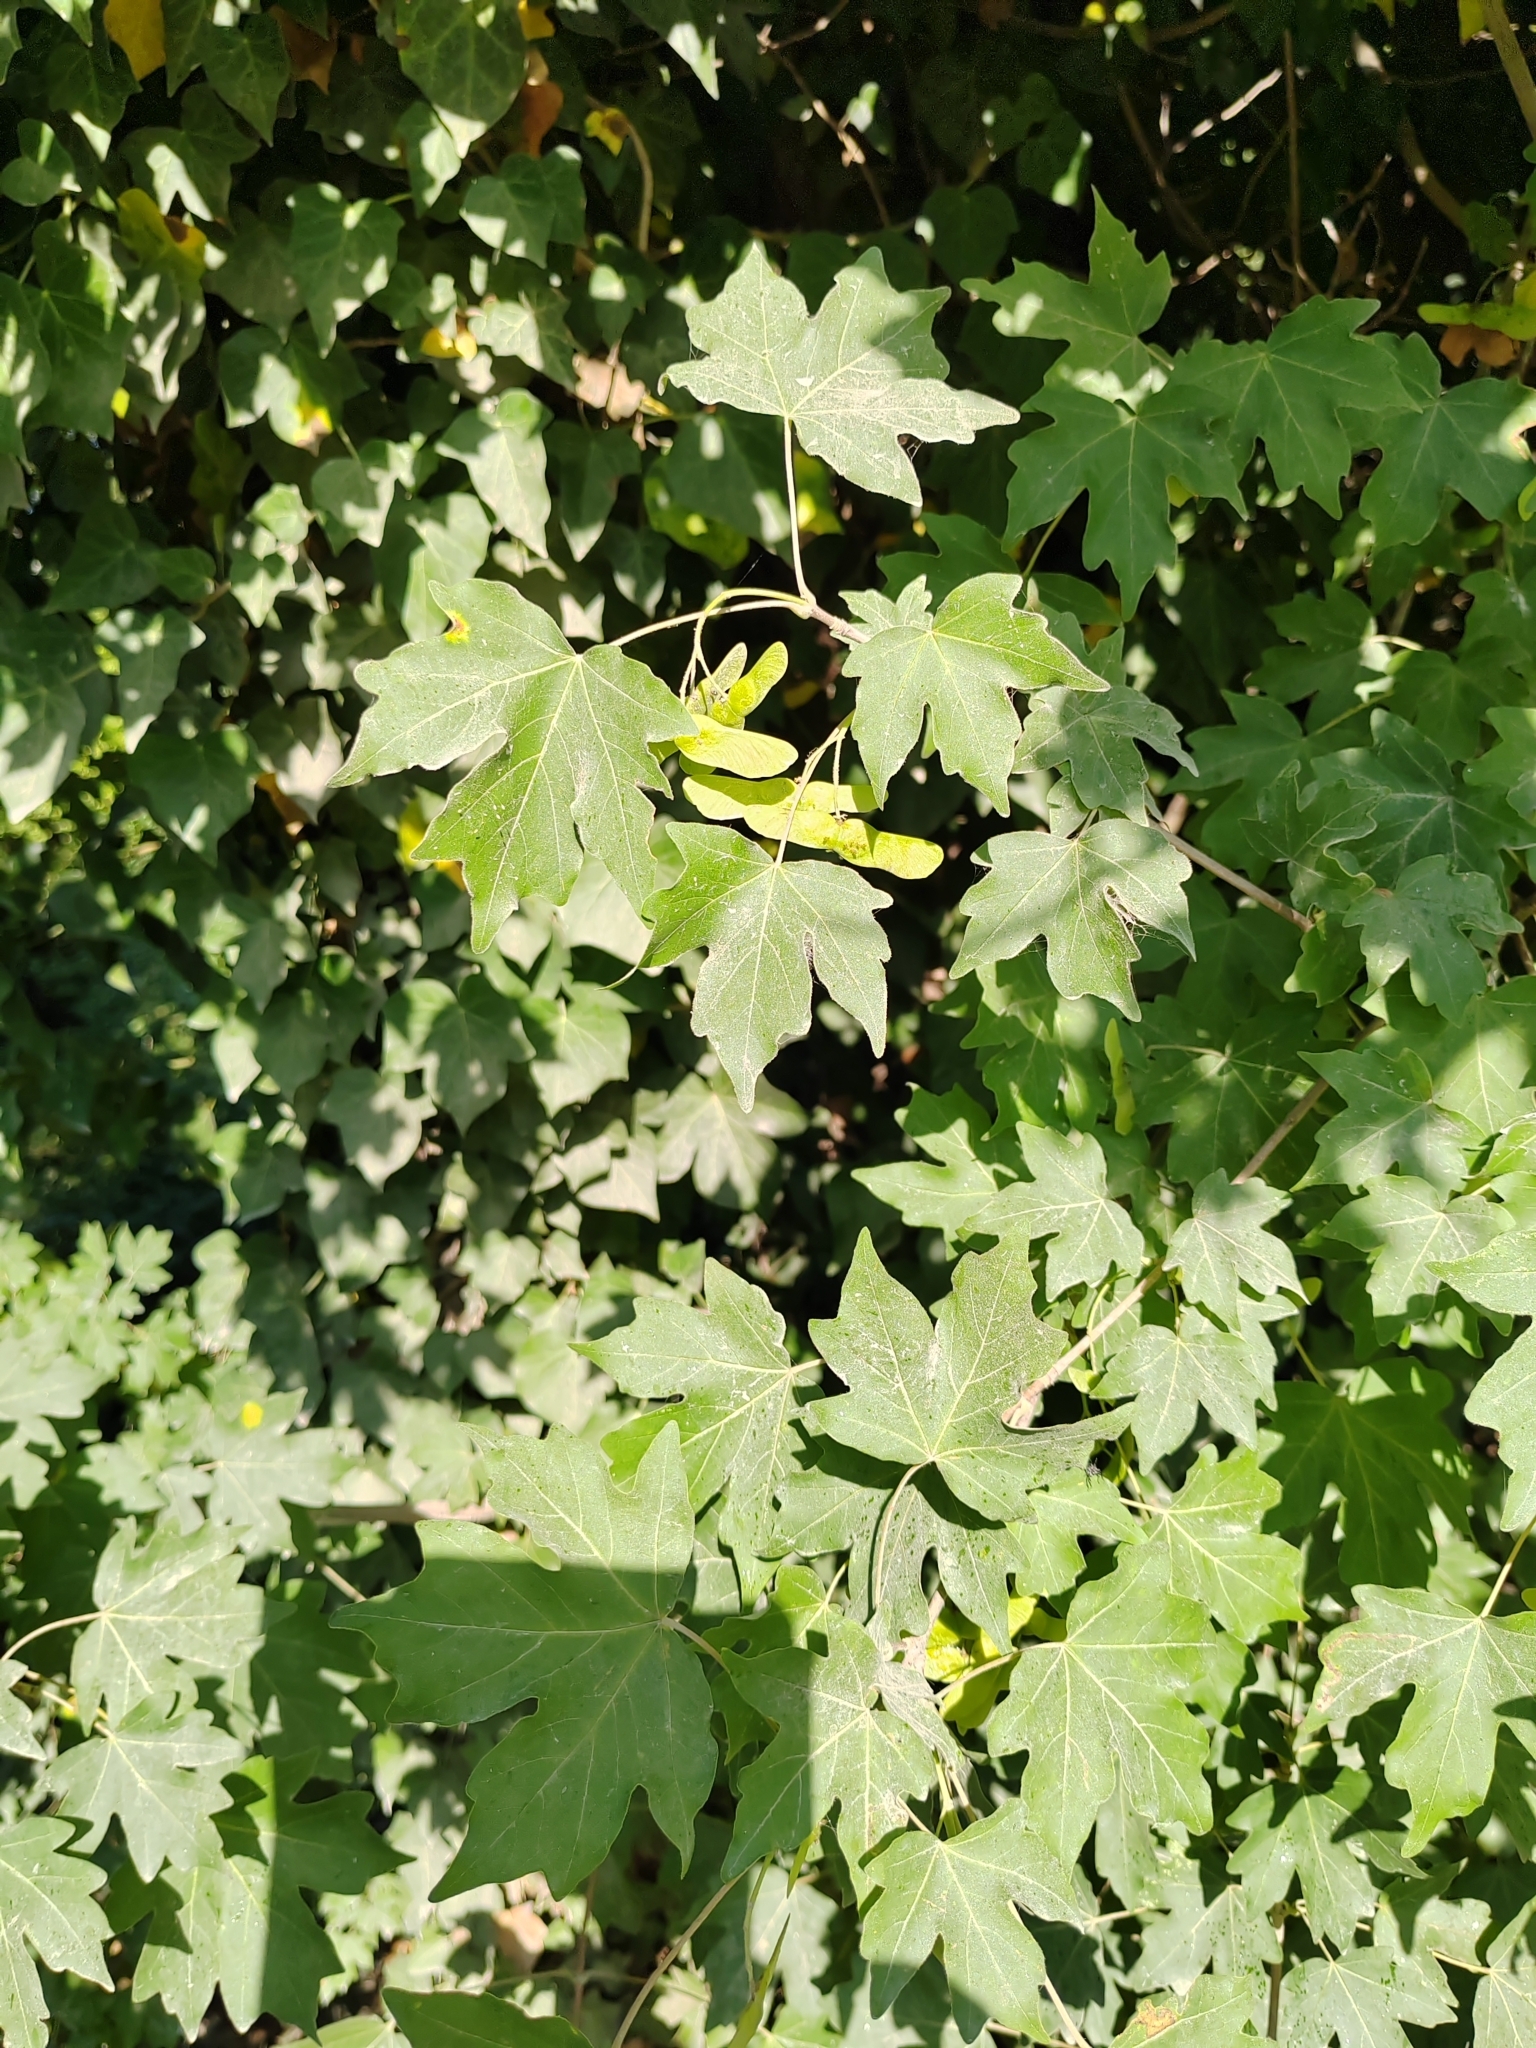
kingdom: Plantae
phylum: Tracheophyta
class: Magnoliopsida
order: Sapindales
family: Sapindaceae
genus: Acer
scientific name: Acer campestre
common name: Field maple
